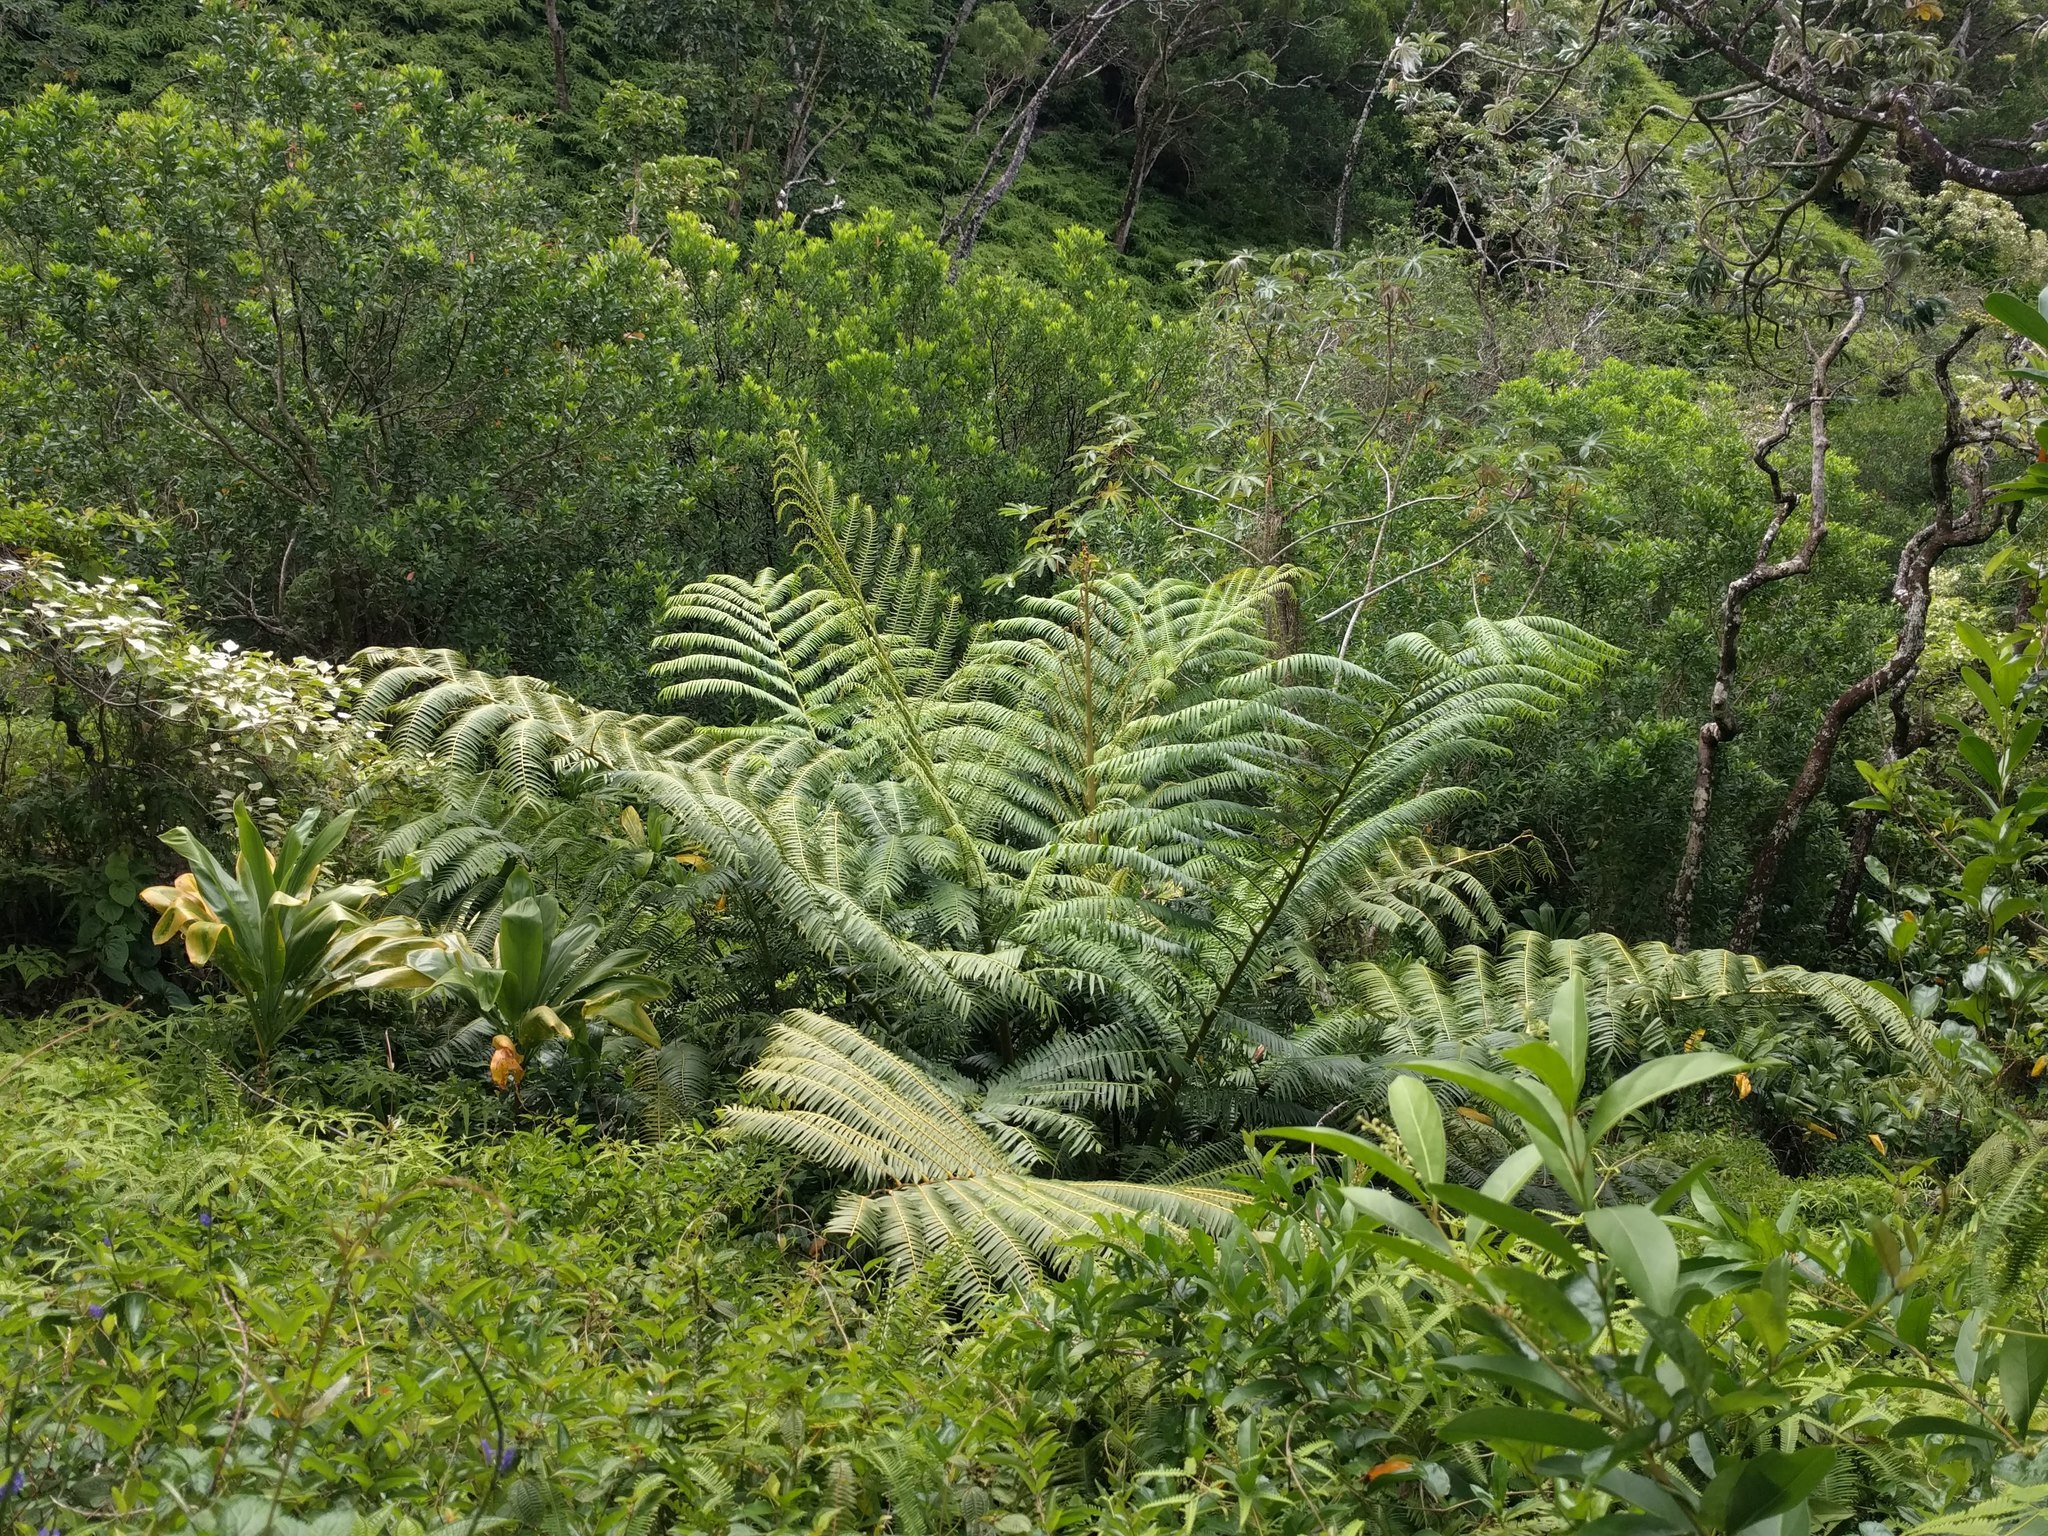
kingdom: Plantae
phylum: Tracheophyta
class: Polypodiopsida
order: Marattiales
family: Marattiaceae
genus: Angiopteris
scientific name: Angiopteris evecta
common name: Mule's-foot fern
